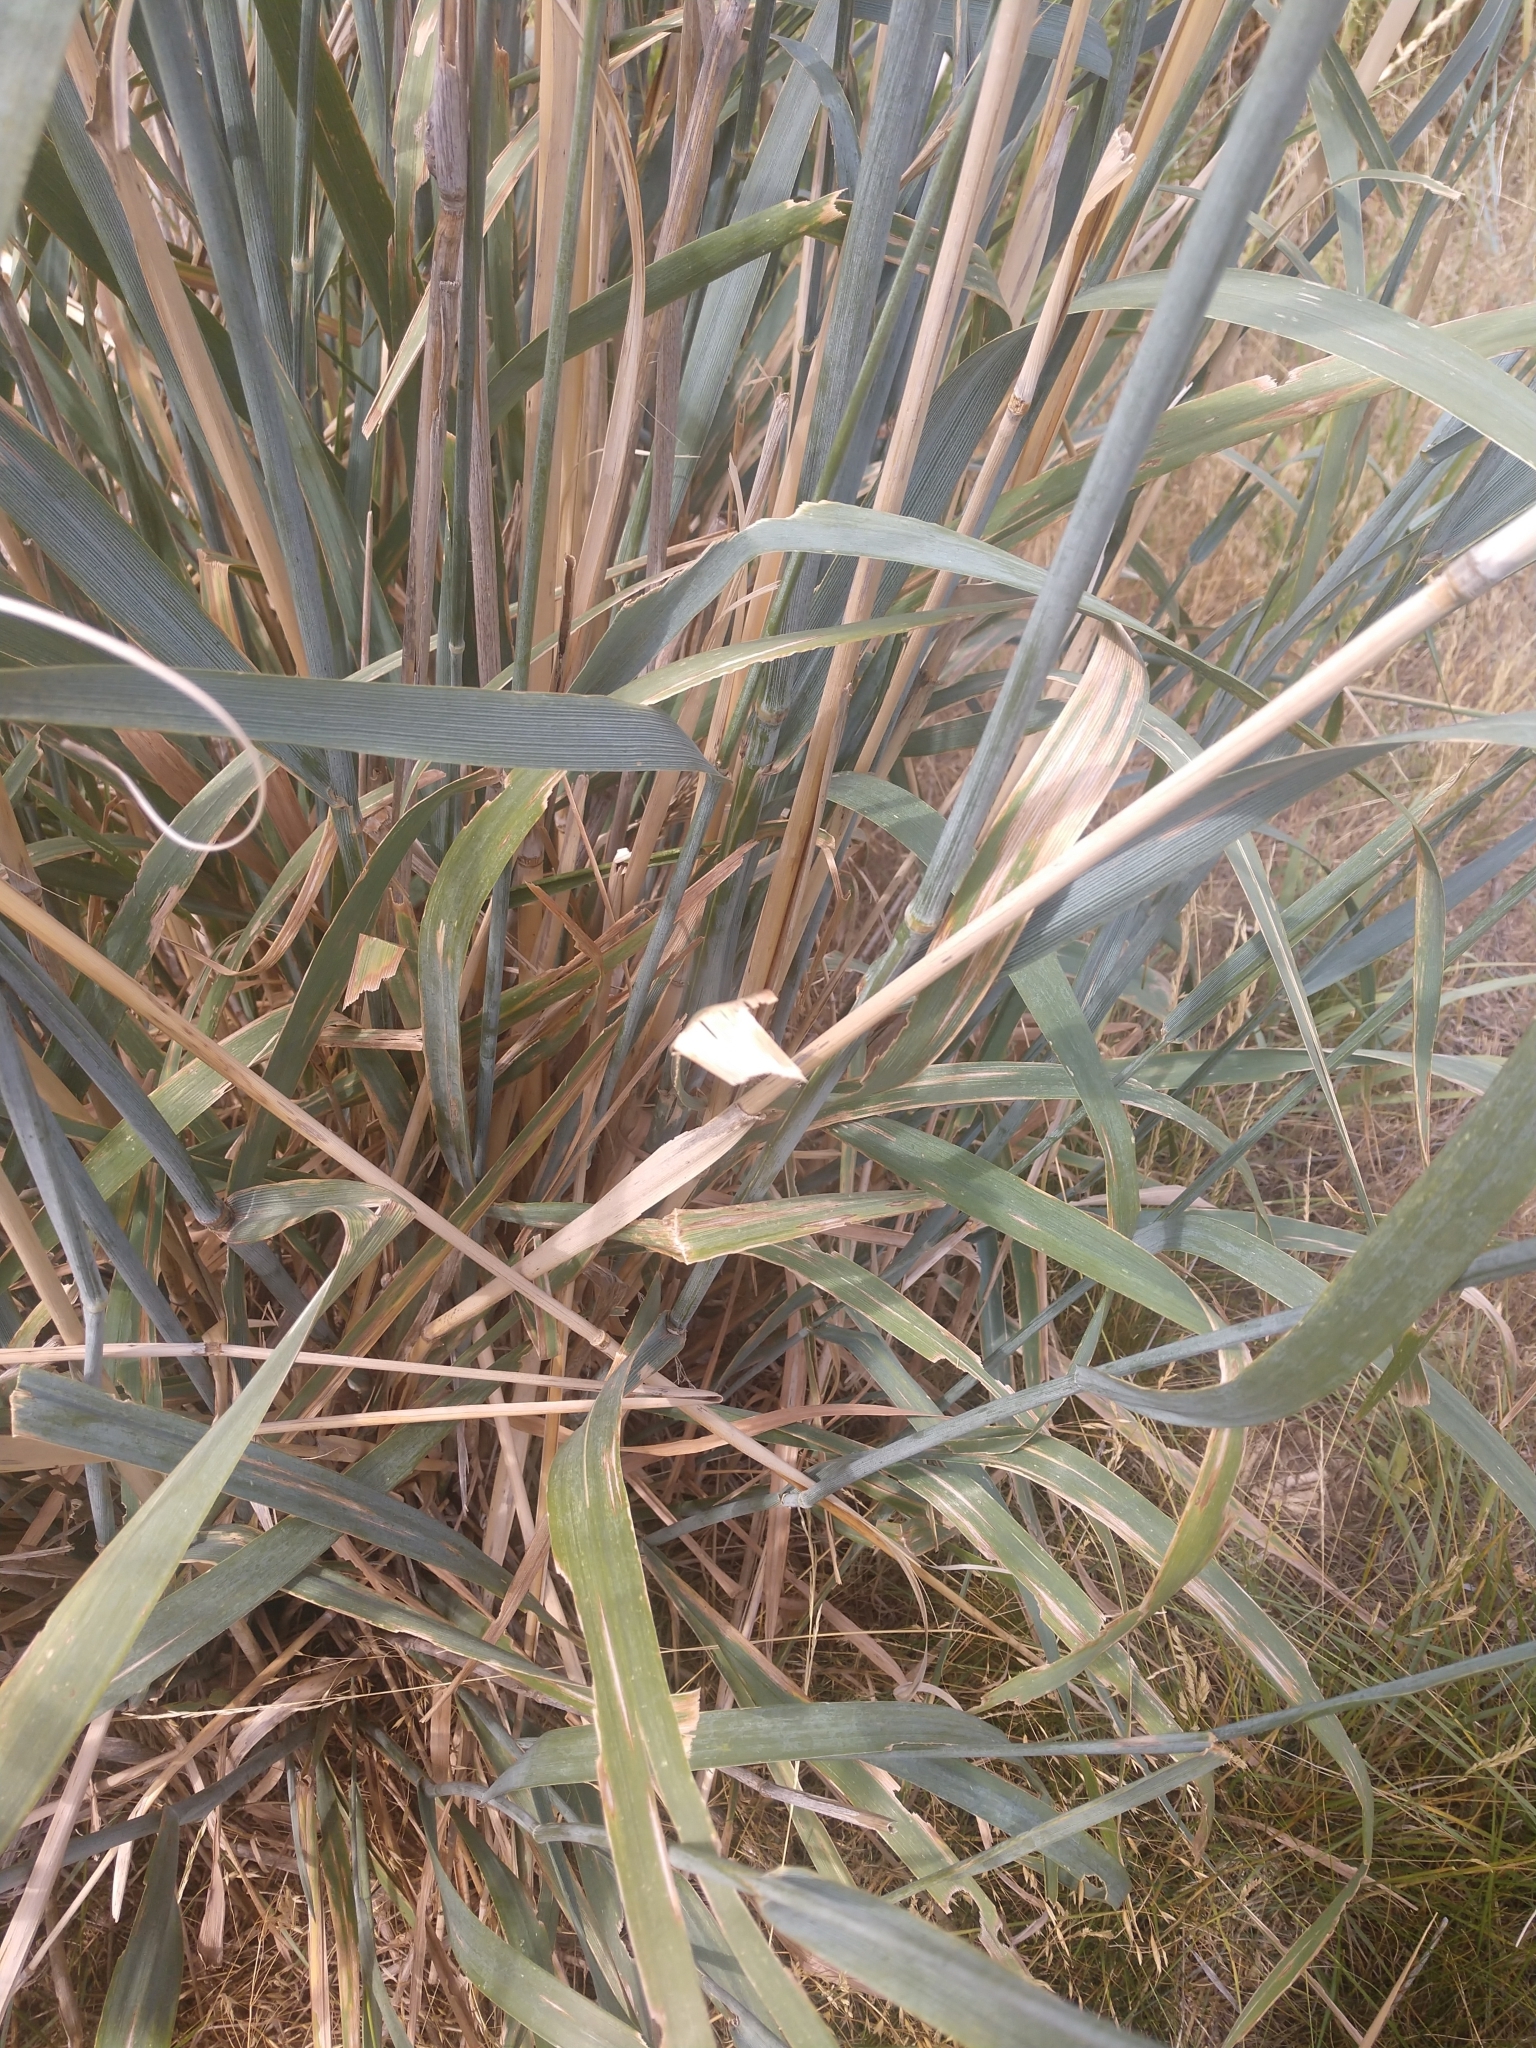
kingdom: Plantae
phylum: Tracheophyta
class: Liliopsida
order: Poales
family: Poaceae
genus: Leymus
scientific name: Leymus cinereus
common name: Basin wild rye
